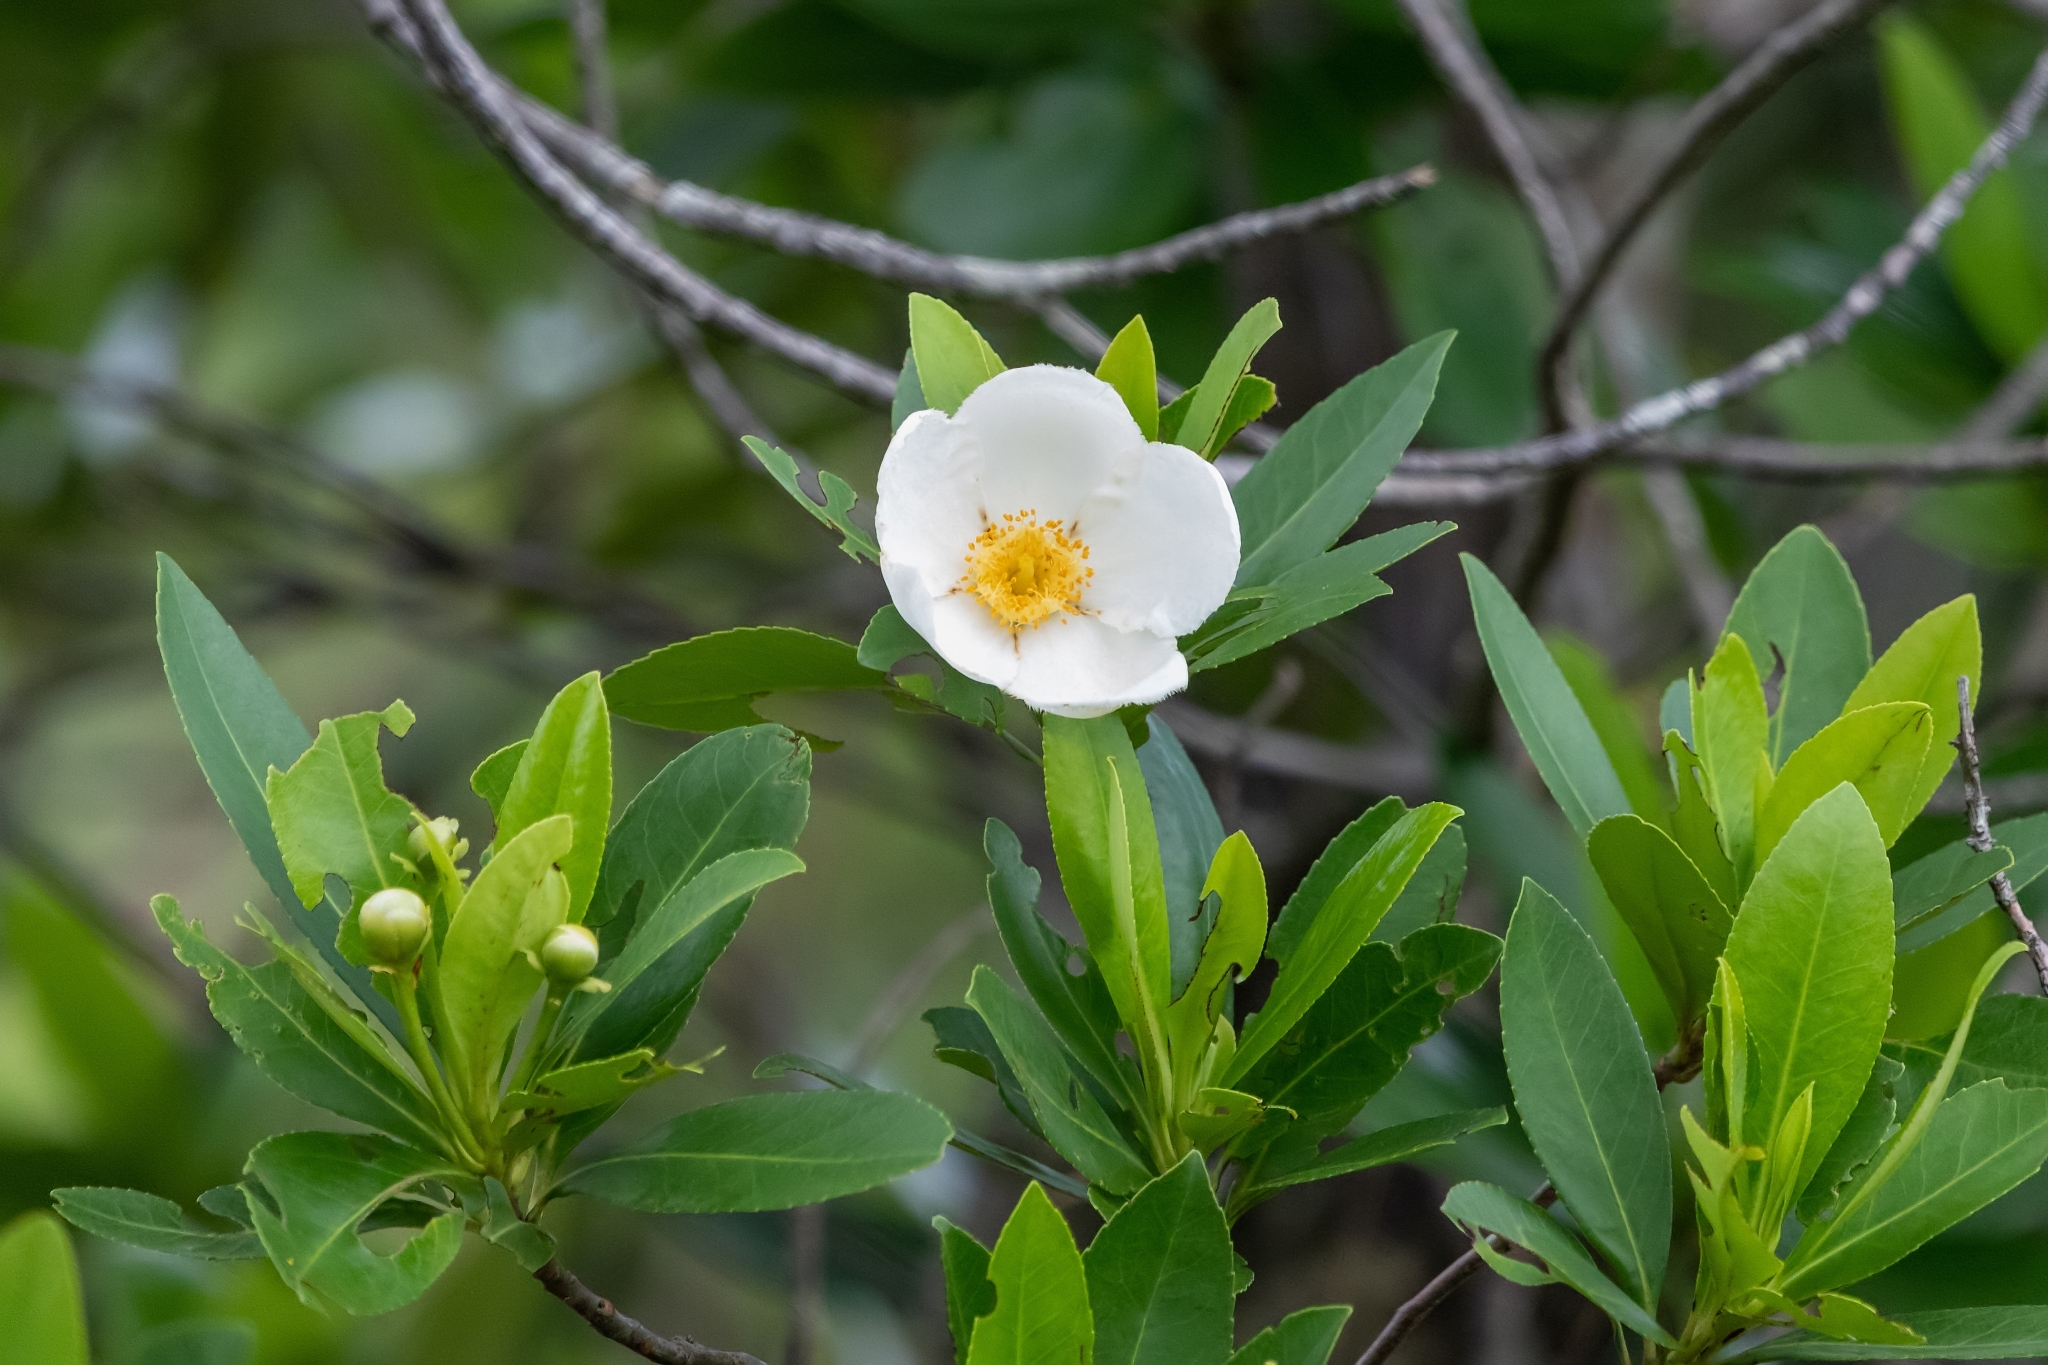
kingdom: Plantae
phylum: Tracheophyta
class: Magnoliopsida
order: Ericales
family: Theaceae
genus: Gordonia
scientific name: Gordonia lasianthus
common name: Loblolly bay
